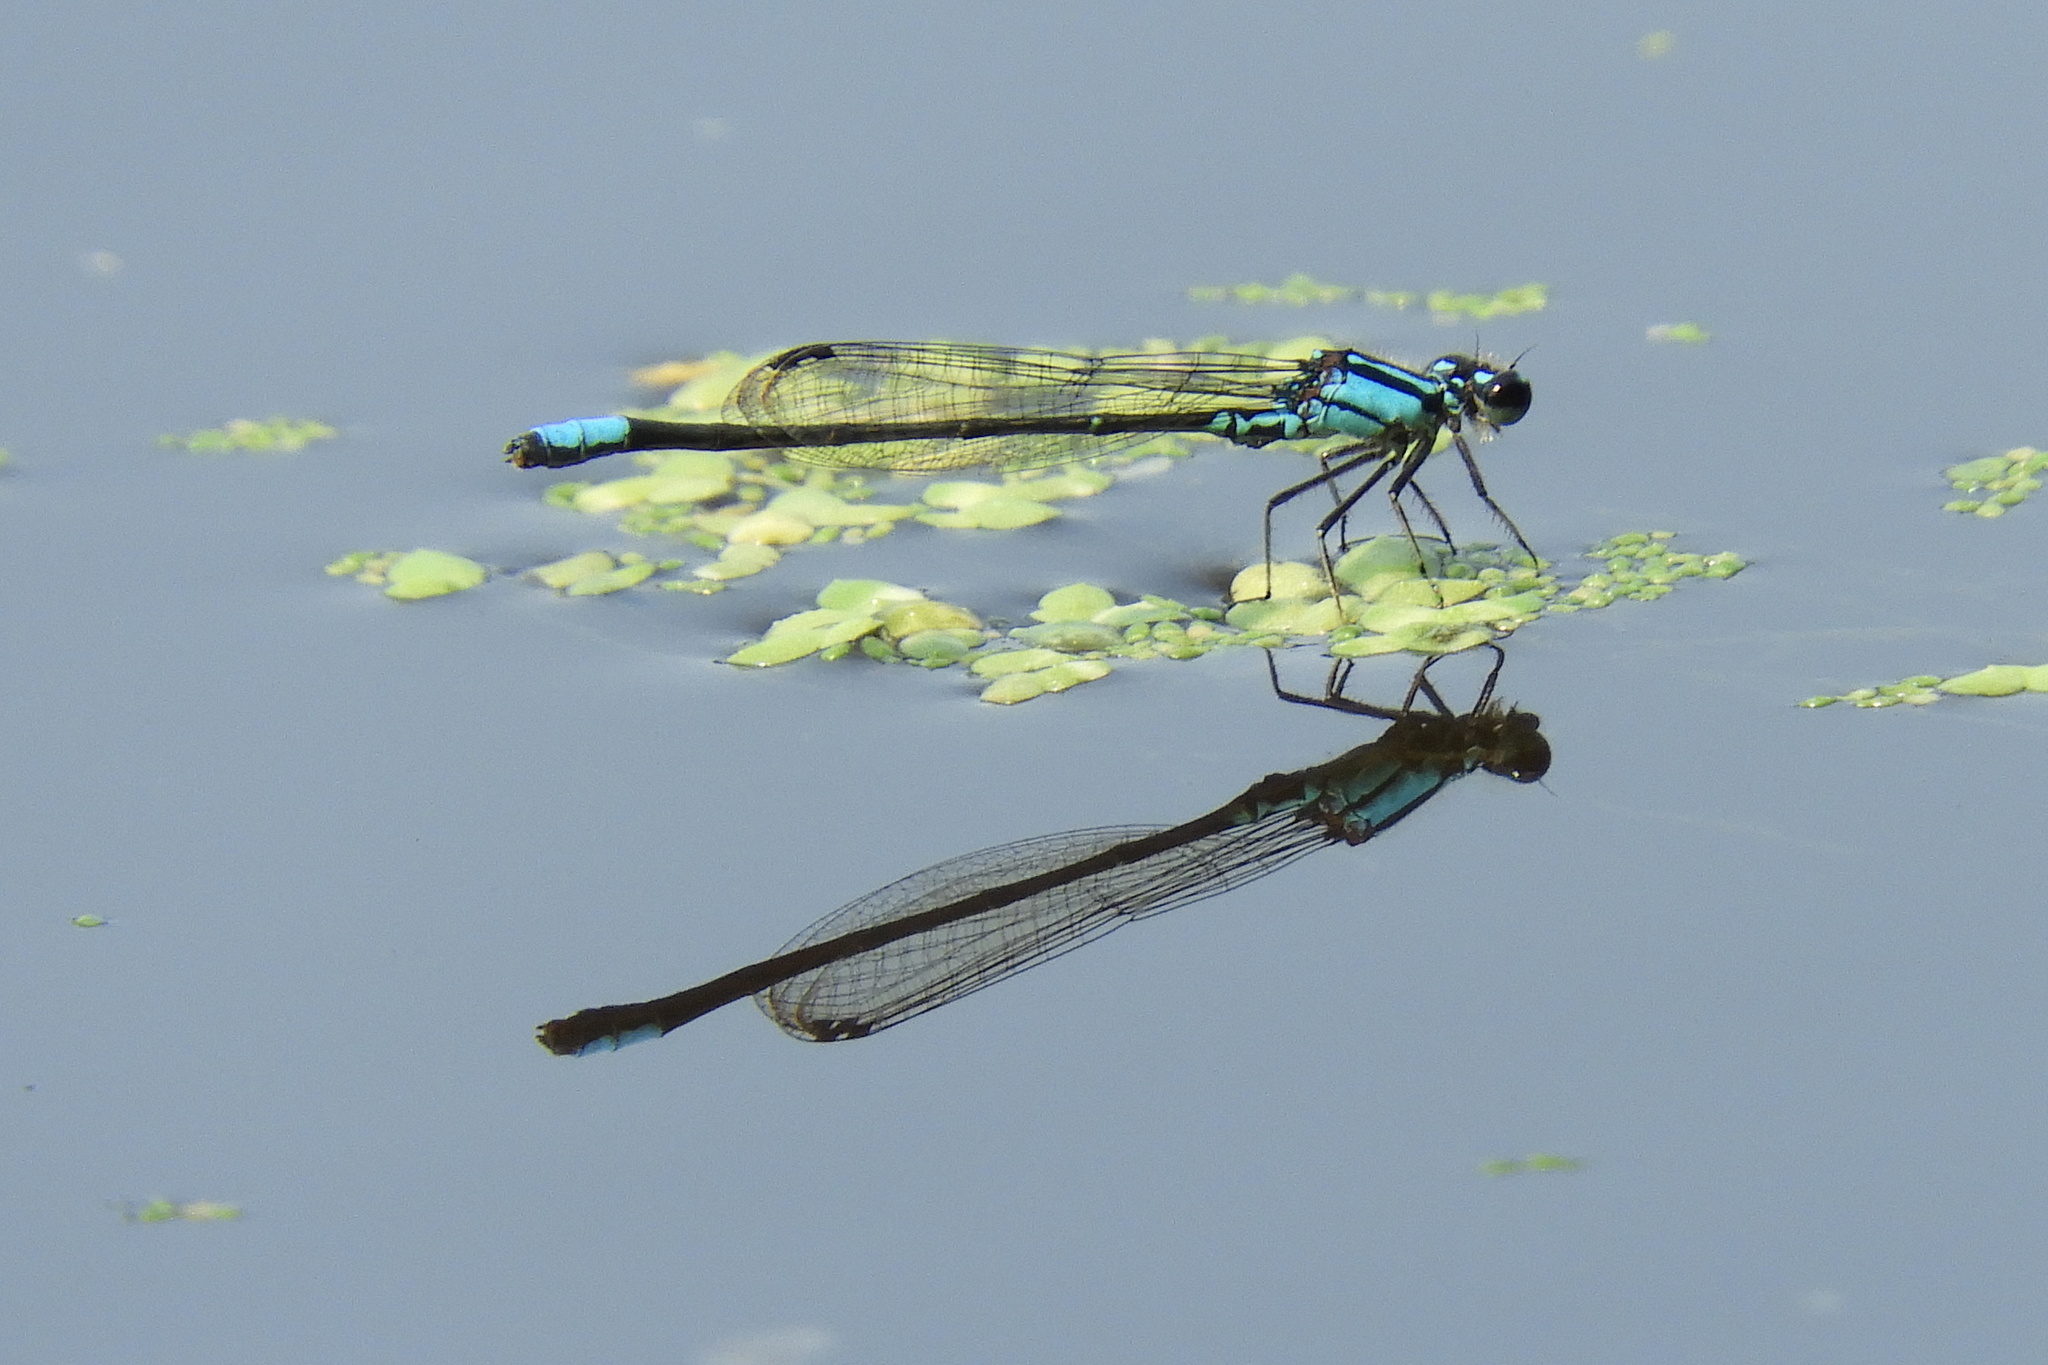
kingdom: Animalia
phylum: Arthropoda
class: Insecta
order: Odonata
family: Coenagrionidae
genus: Enallagma
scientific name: Enallagma geminatum
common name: Skimming bluet
